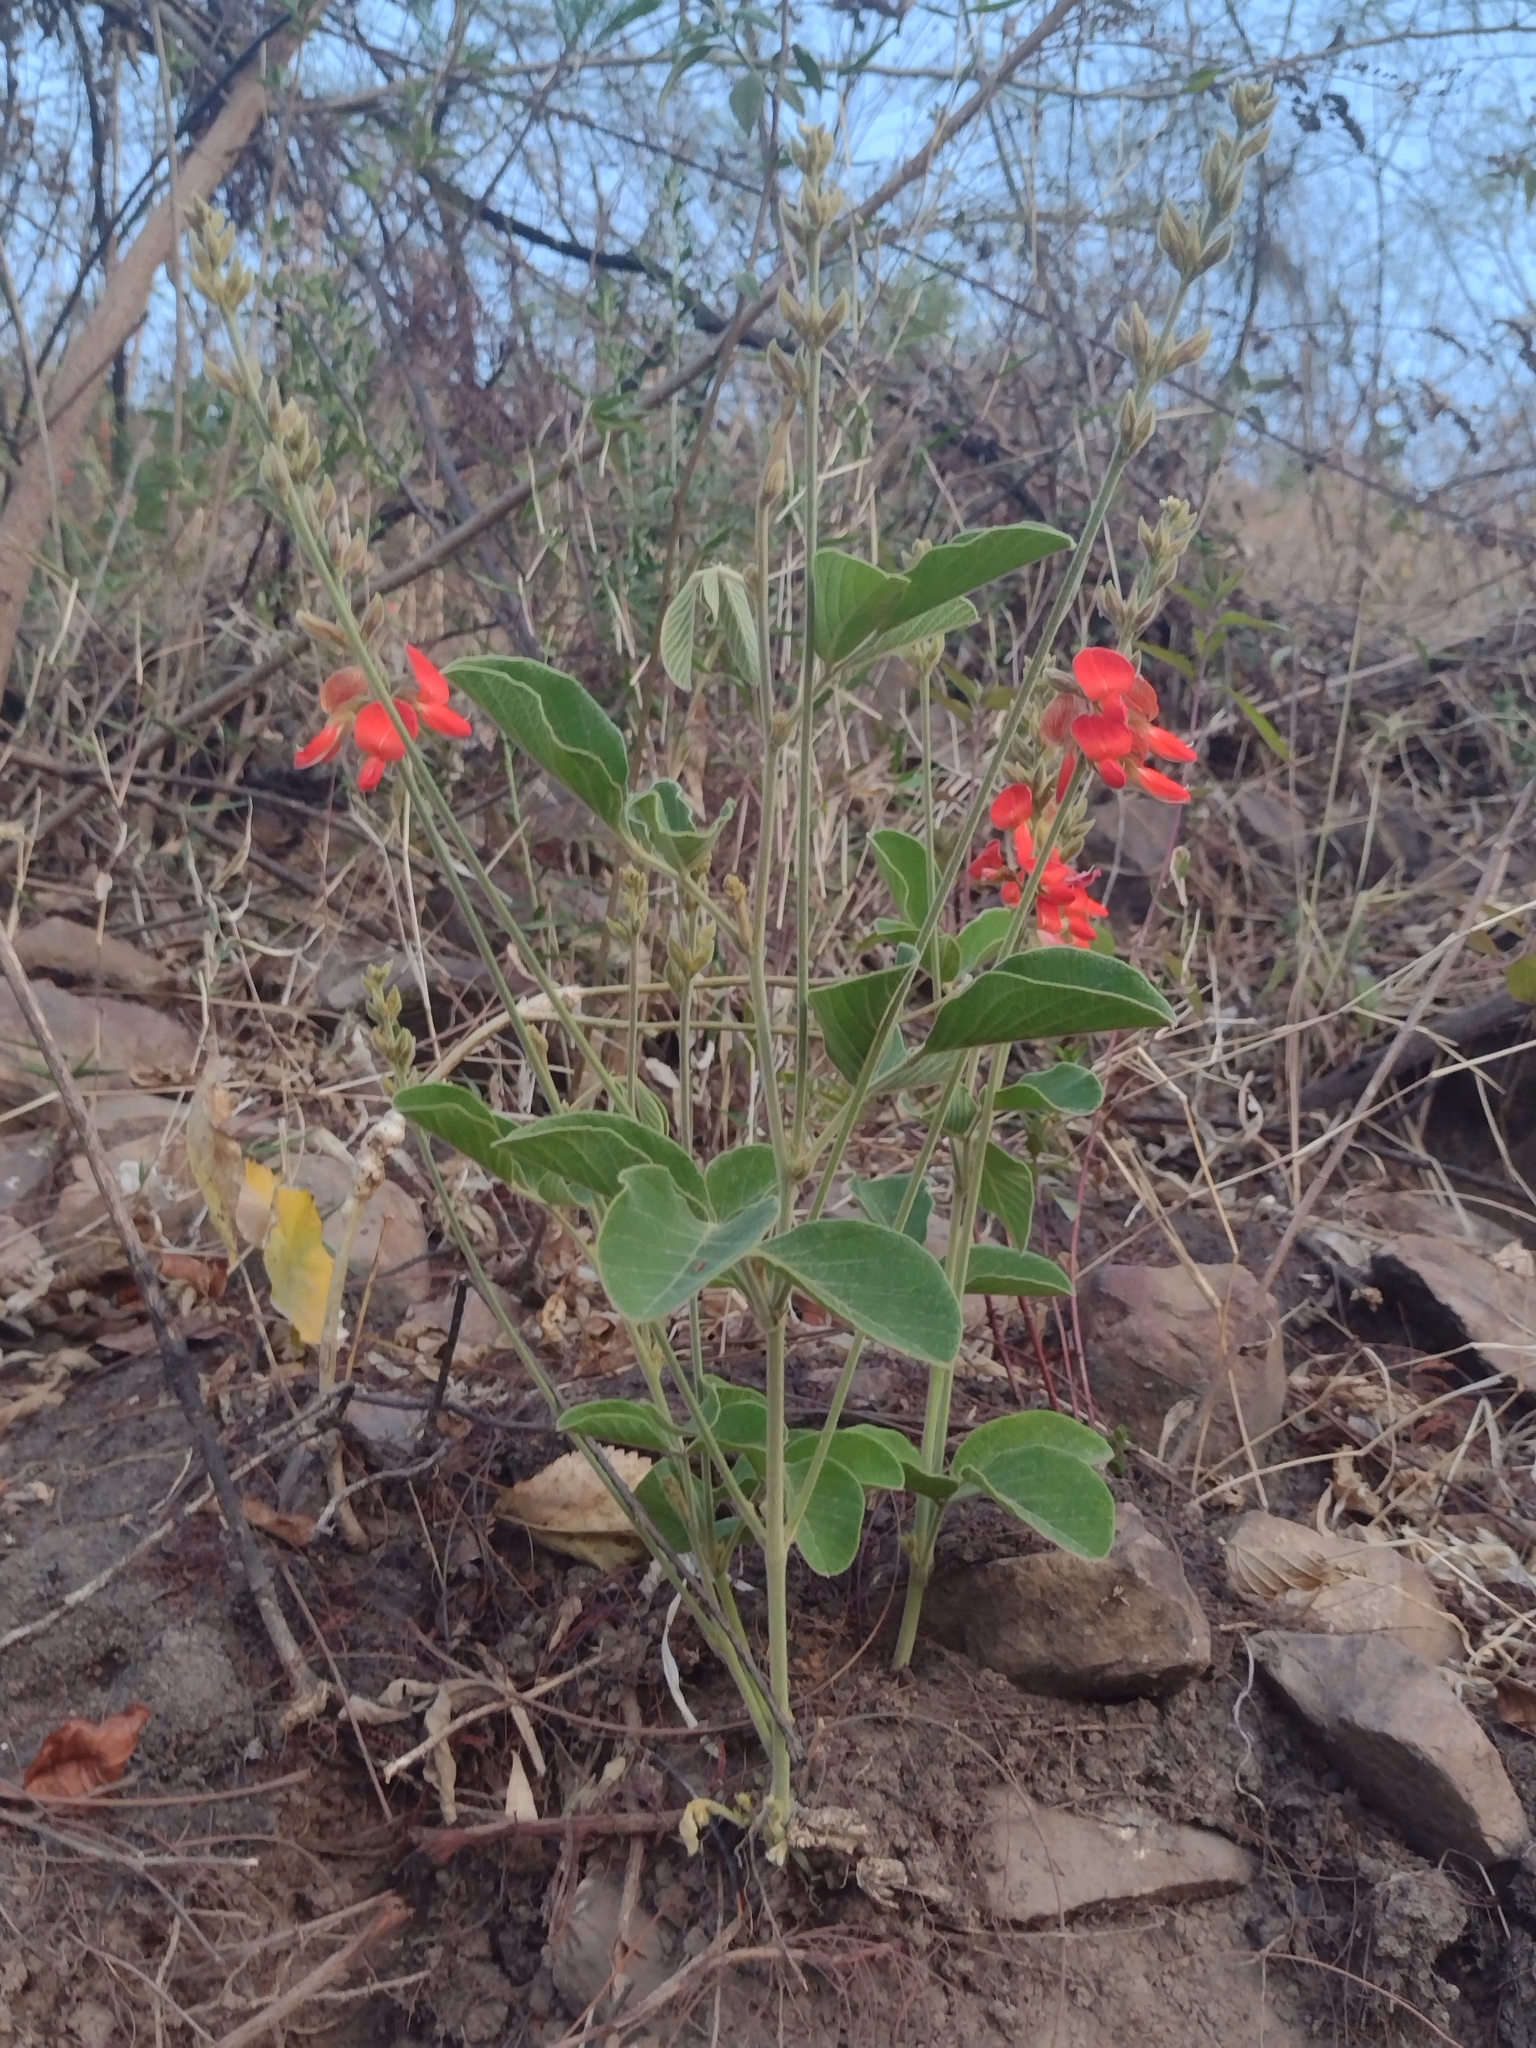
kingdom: Plantae
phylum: Tracheophyta
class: Magnoliopsida
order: Fabales
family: Fabaceae
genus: Cerradicola
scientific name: Cerradicola praeandina
